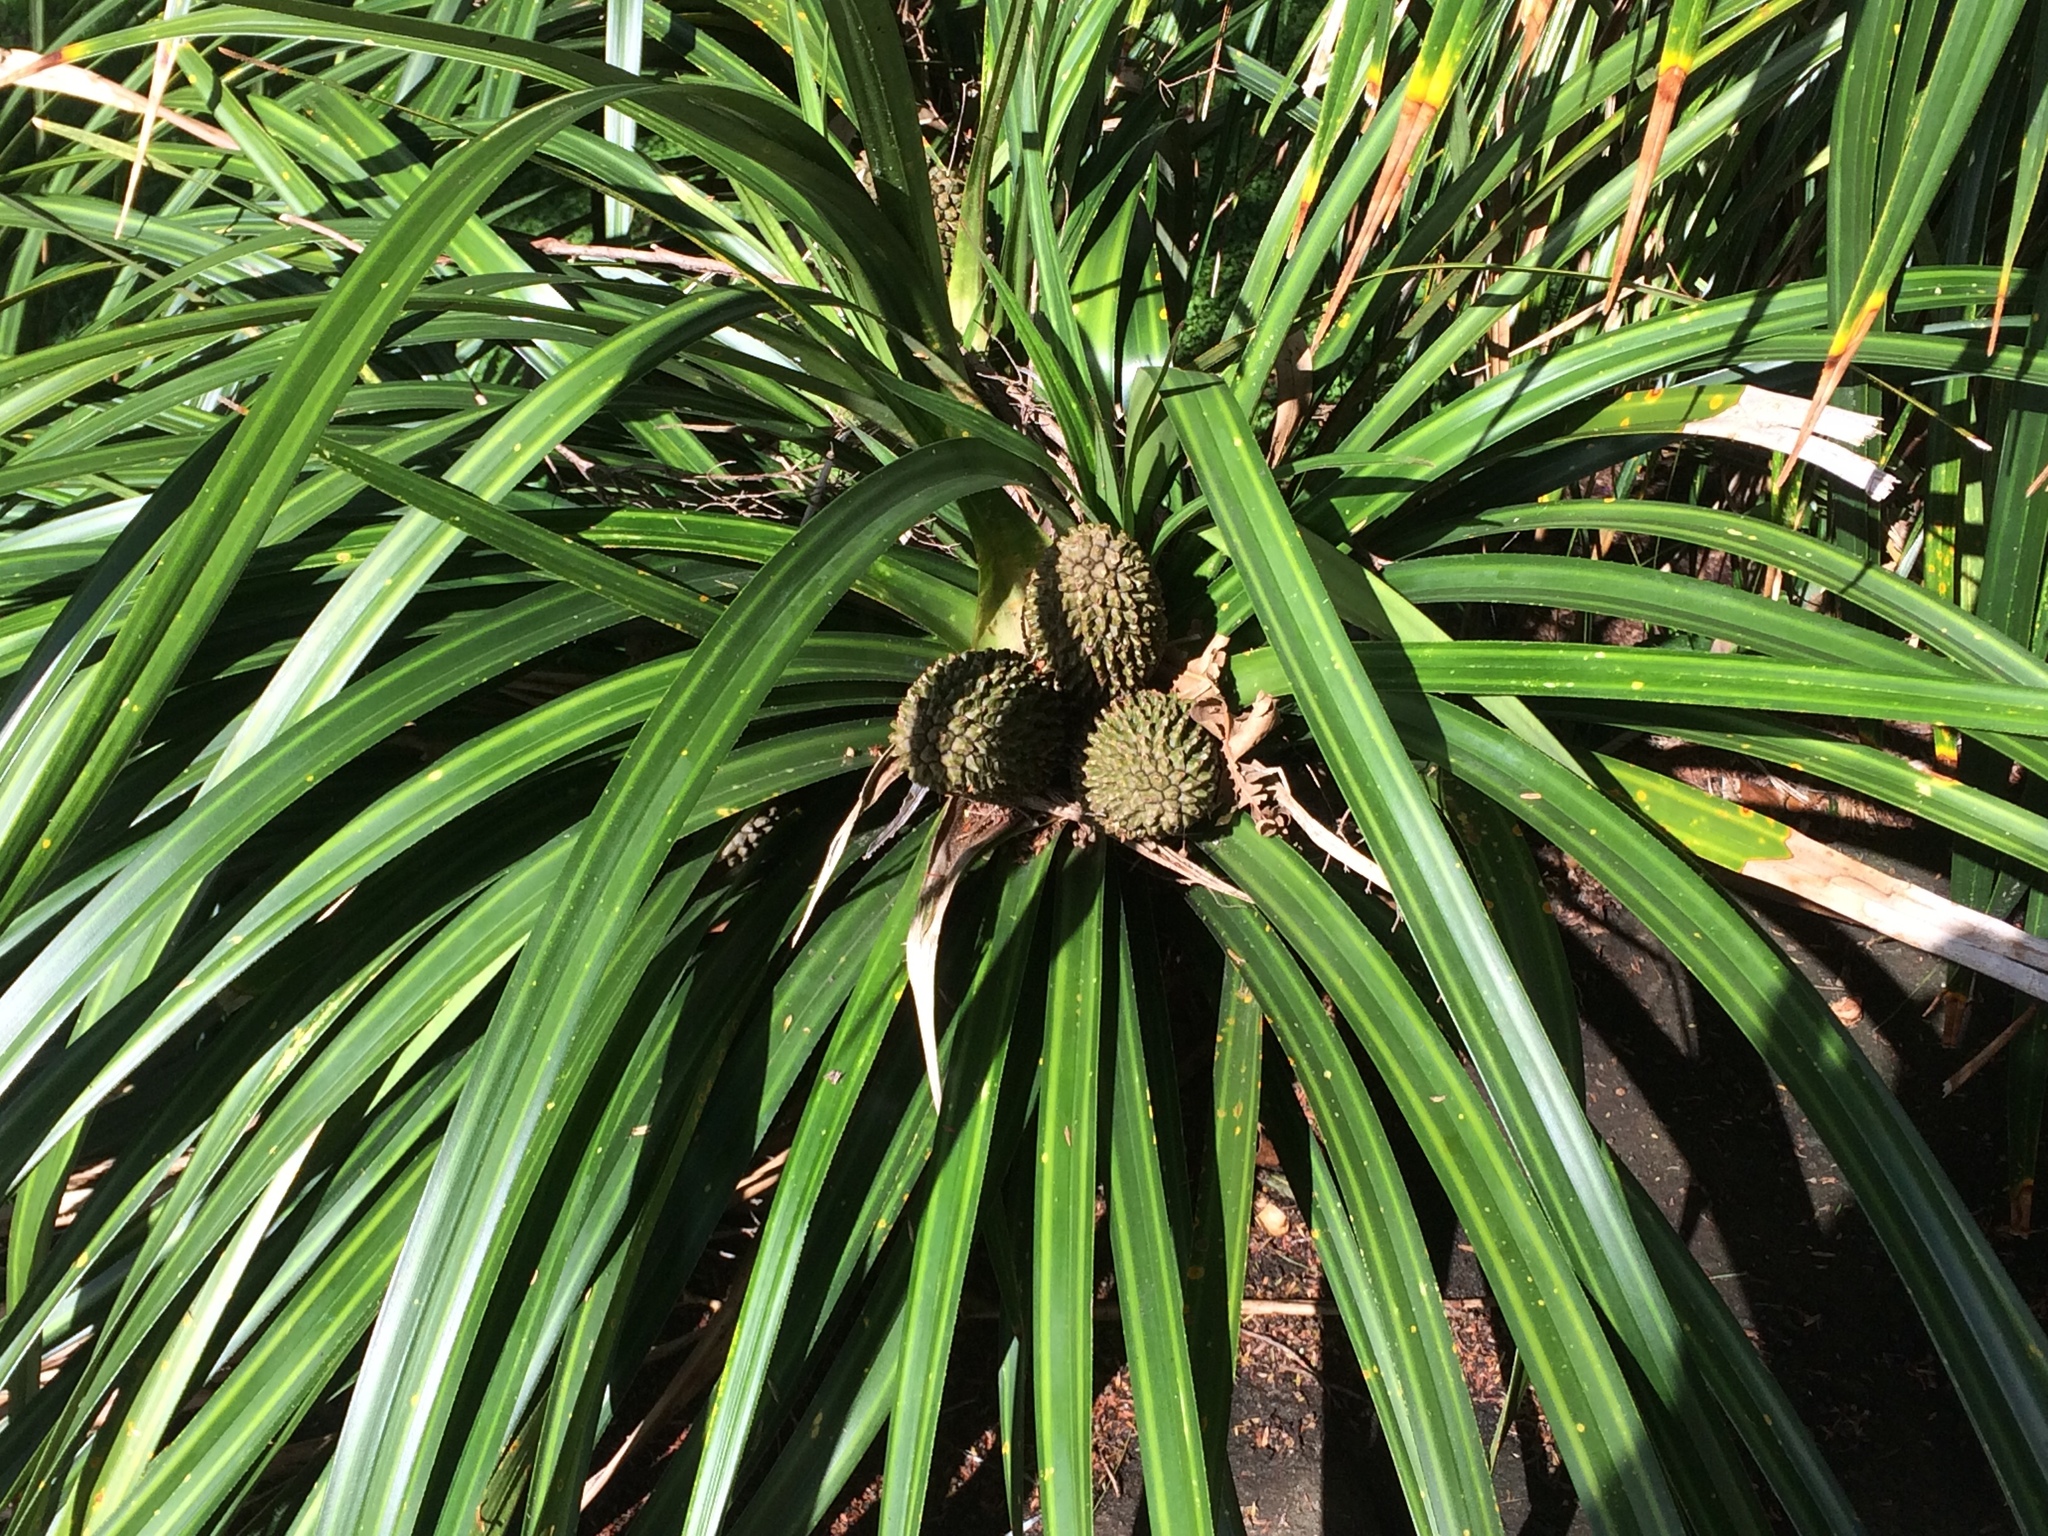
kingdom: Plantae
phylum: Tracheophyta
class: Liliopsida
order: Pandanales
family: Pandanaceae
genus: Freycinetia
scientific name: Freycinetia banksii
